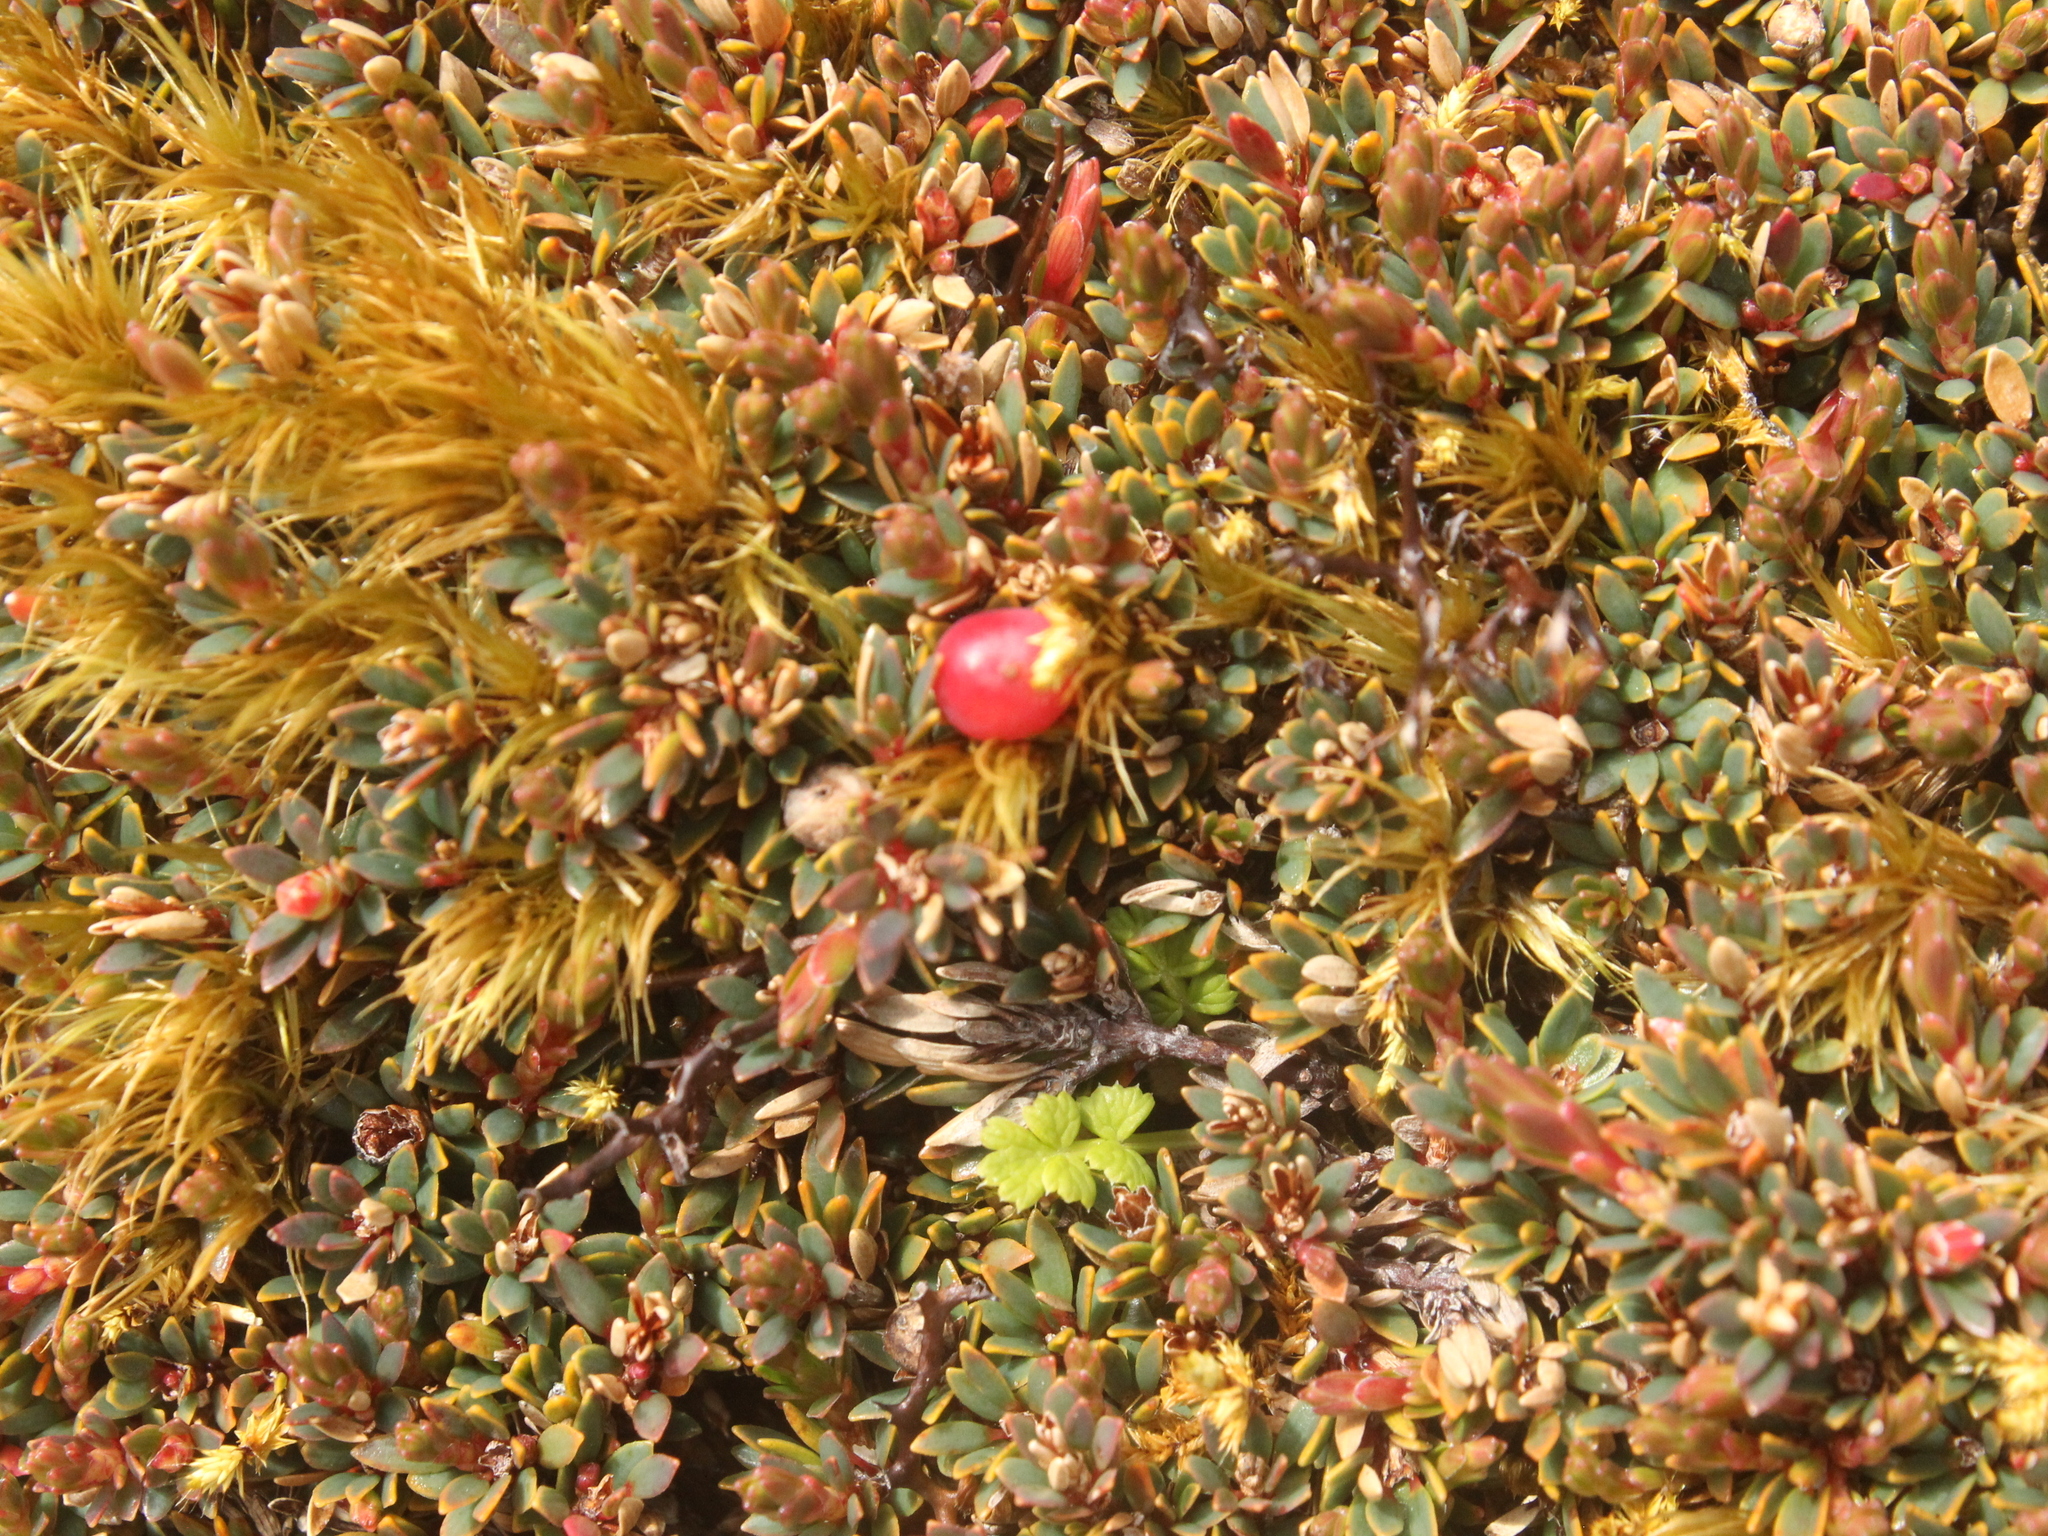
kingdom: Plantae
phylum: Tracheophyta
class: Magnoliopsida
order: Ericales
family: Ericaceae
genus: Pentachondra
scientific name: Pentachondra pumila
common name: Carpet-heath
